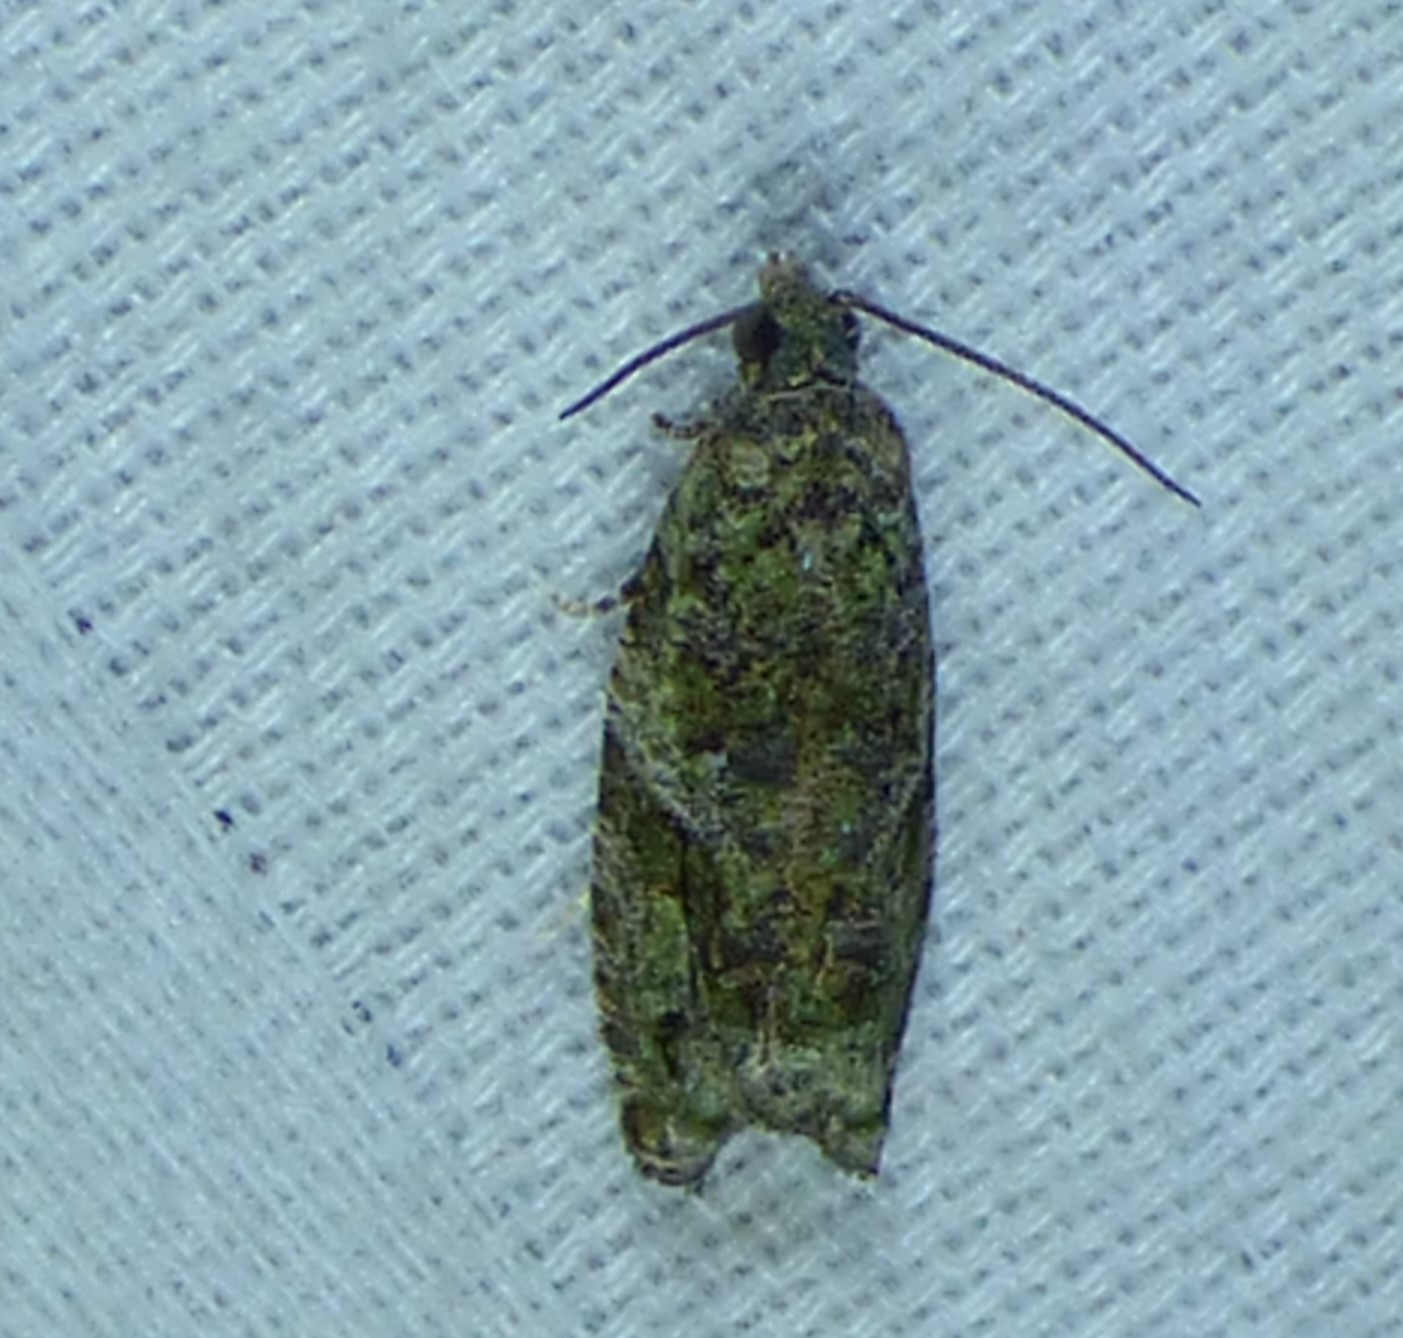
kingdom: Animalia
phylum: Arthropoda
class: Insecta
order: Lepidoptera
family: Tortricidae
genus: Proteoteras
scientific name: Proteoteras aesculana
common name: Maple twig borer moth
